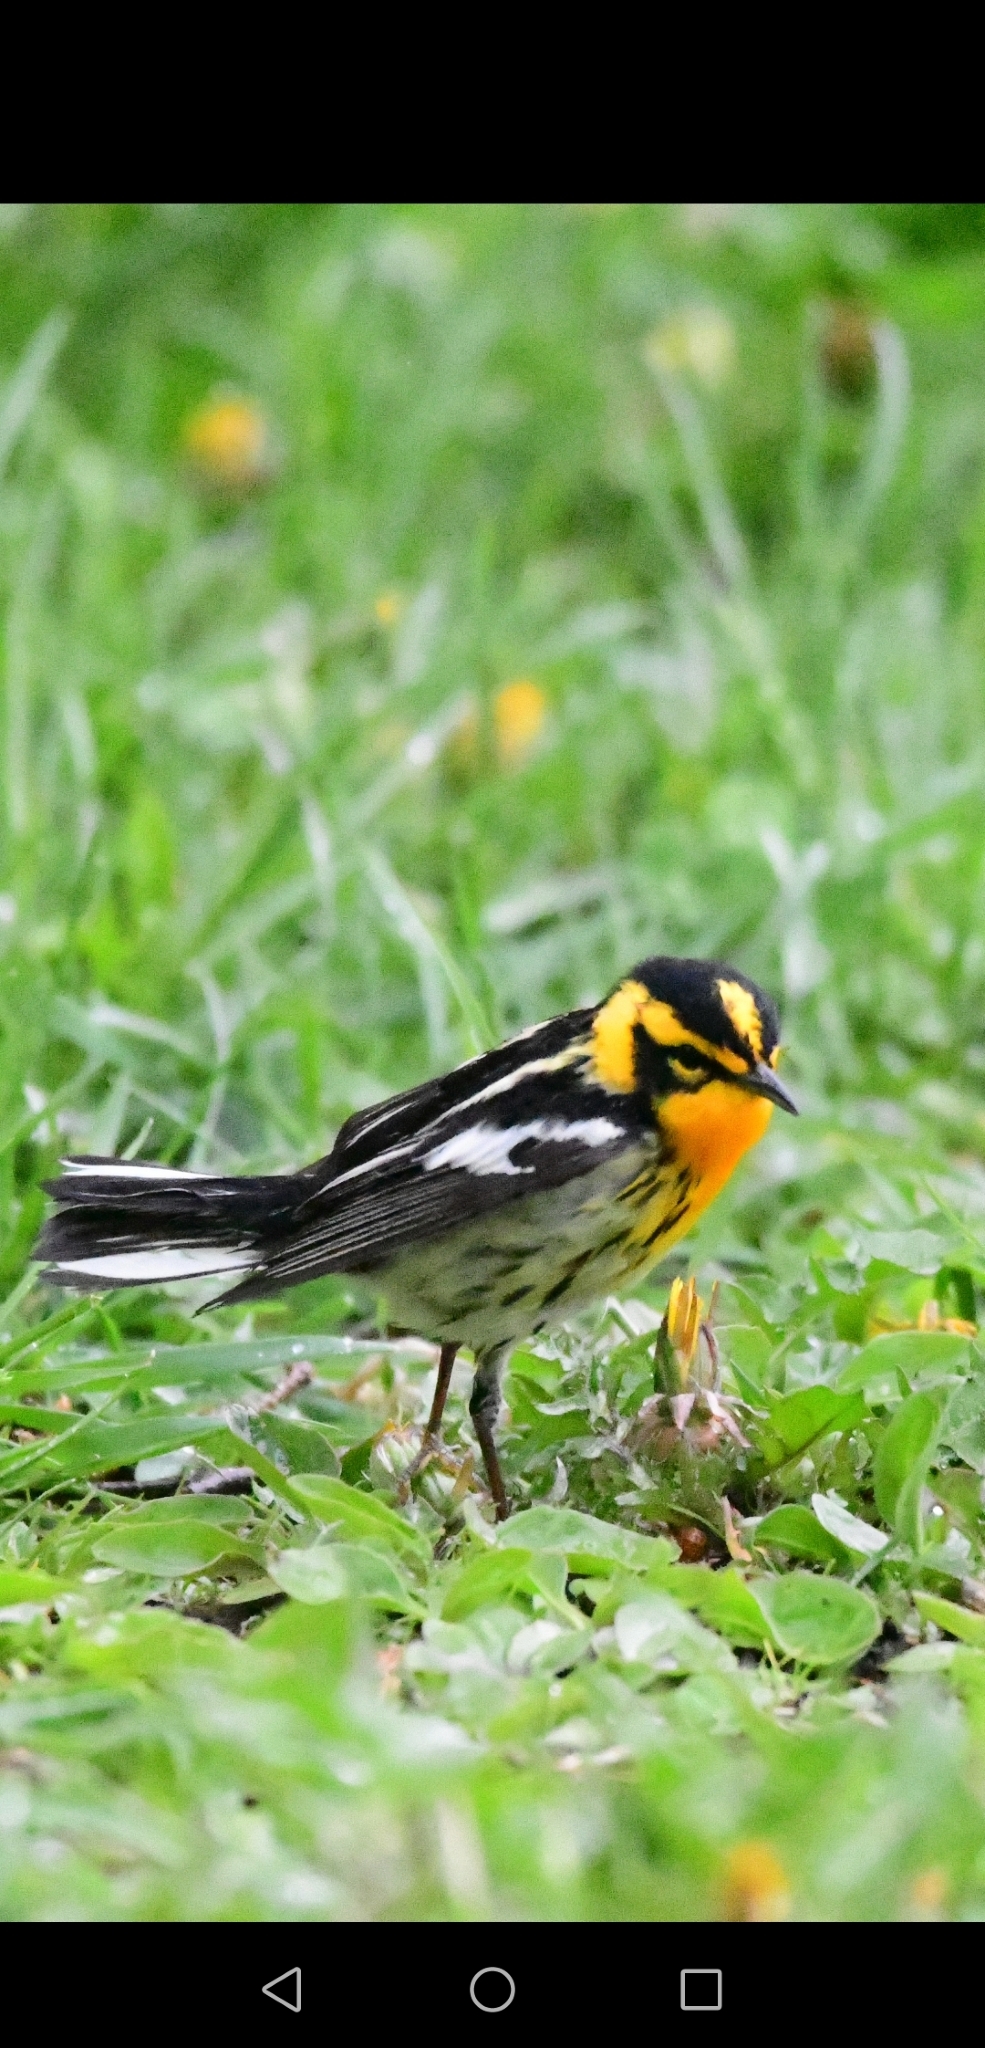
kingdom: Animalia
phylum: Chordata
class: Aves
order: Passeriformes
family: Parulidae
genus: Setophaga
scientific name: Setophaga fusca
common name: Blackburnian warbler
